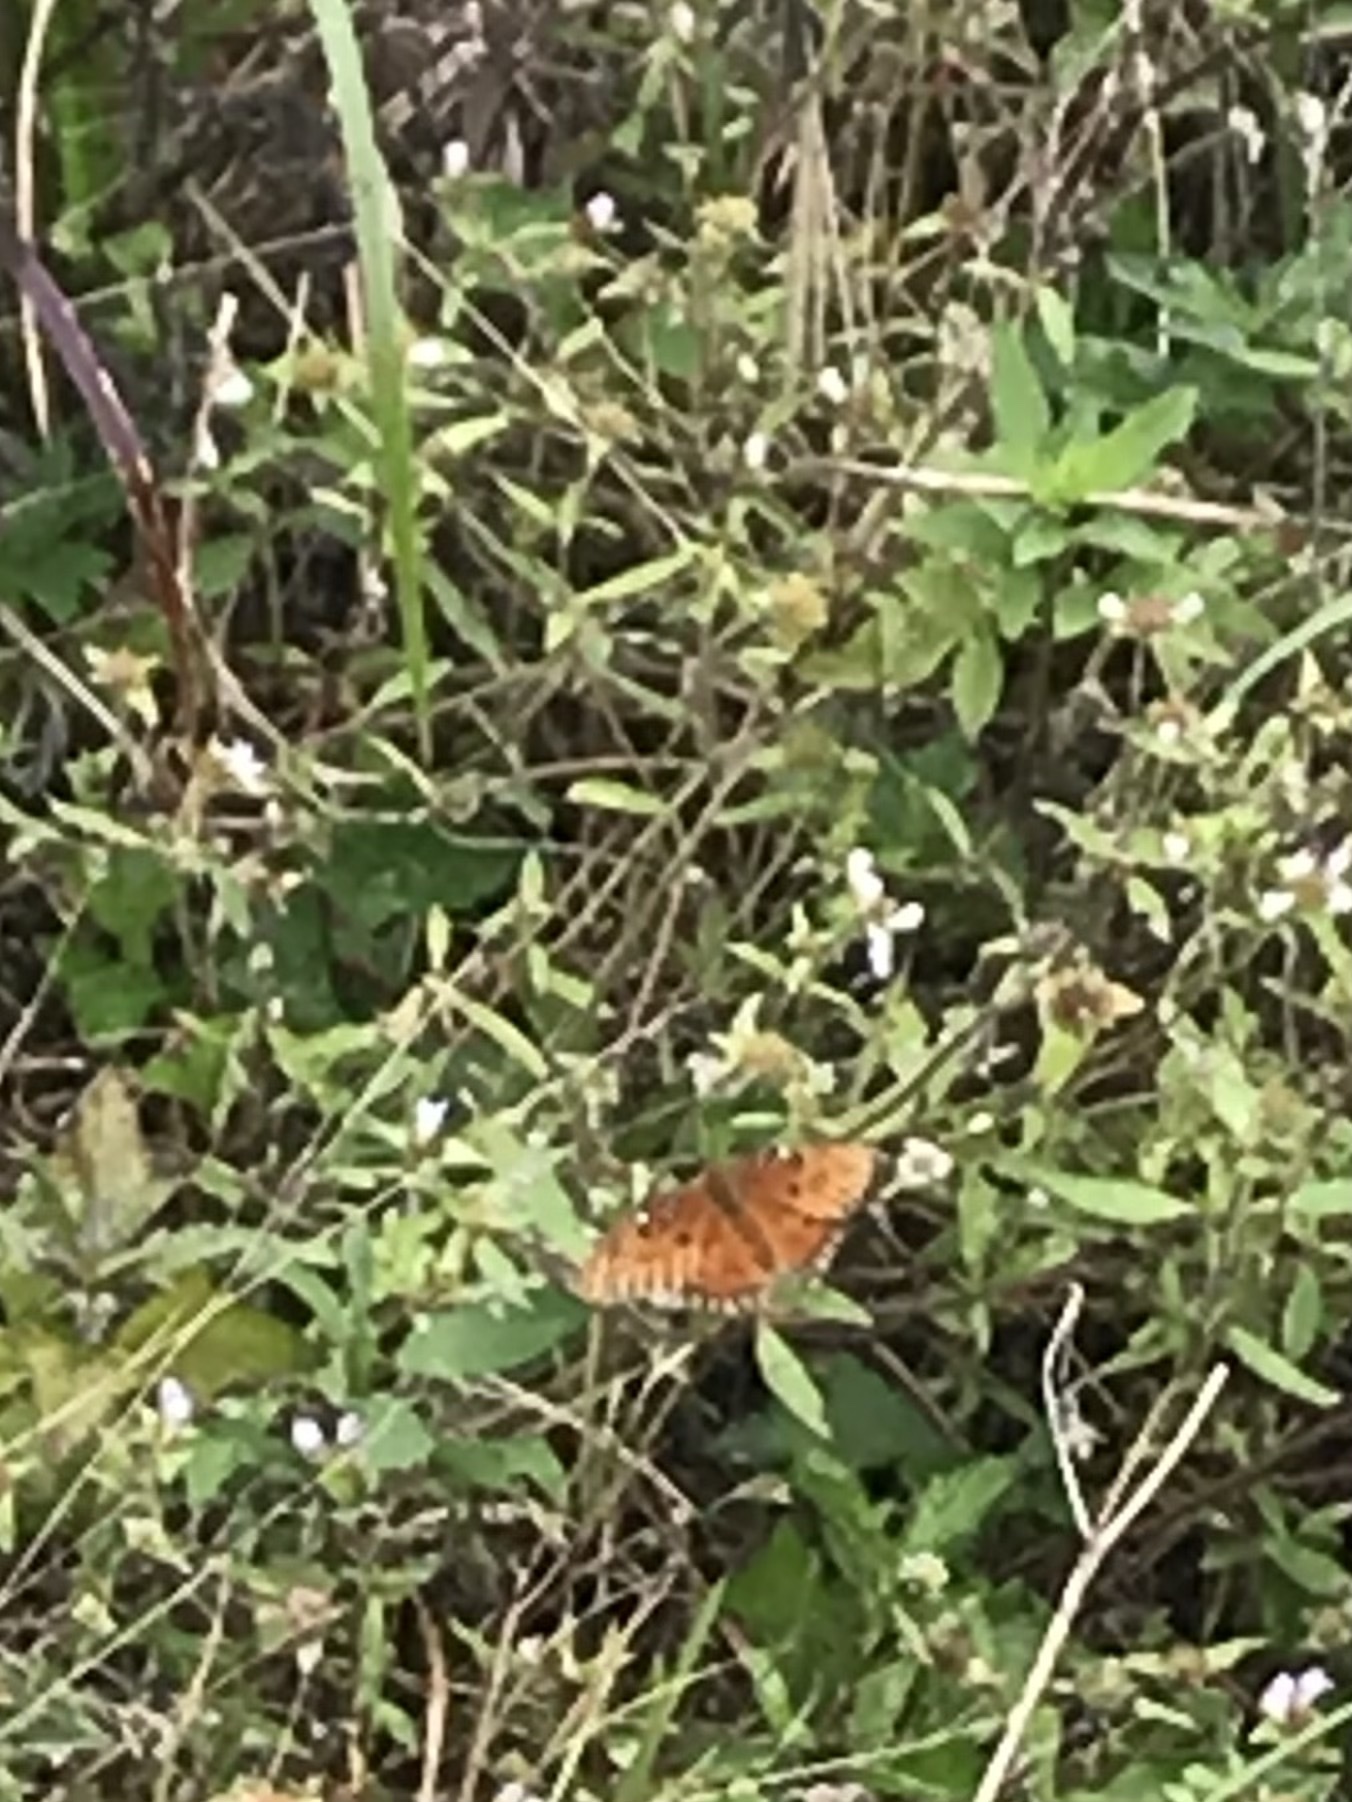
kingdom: Animalia
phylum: Arthropoda
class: Insecta
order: Lepidoptera
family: Nymphalidae
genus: Dione
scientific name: Dione vanillae
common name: Gulf fritillary
